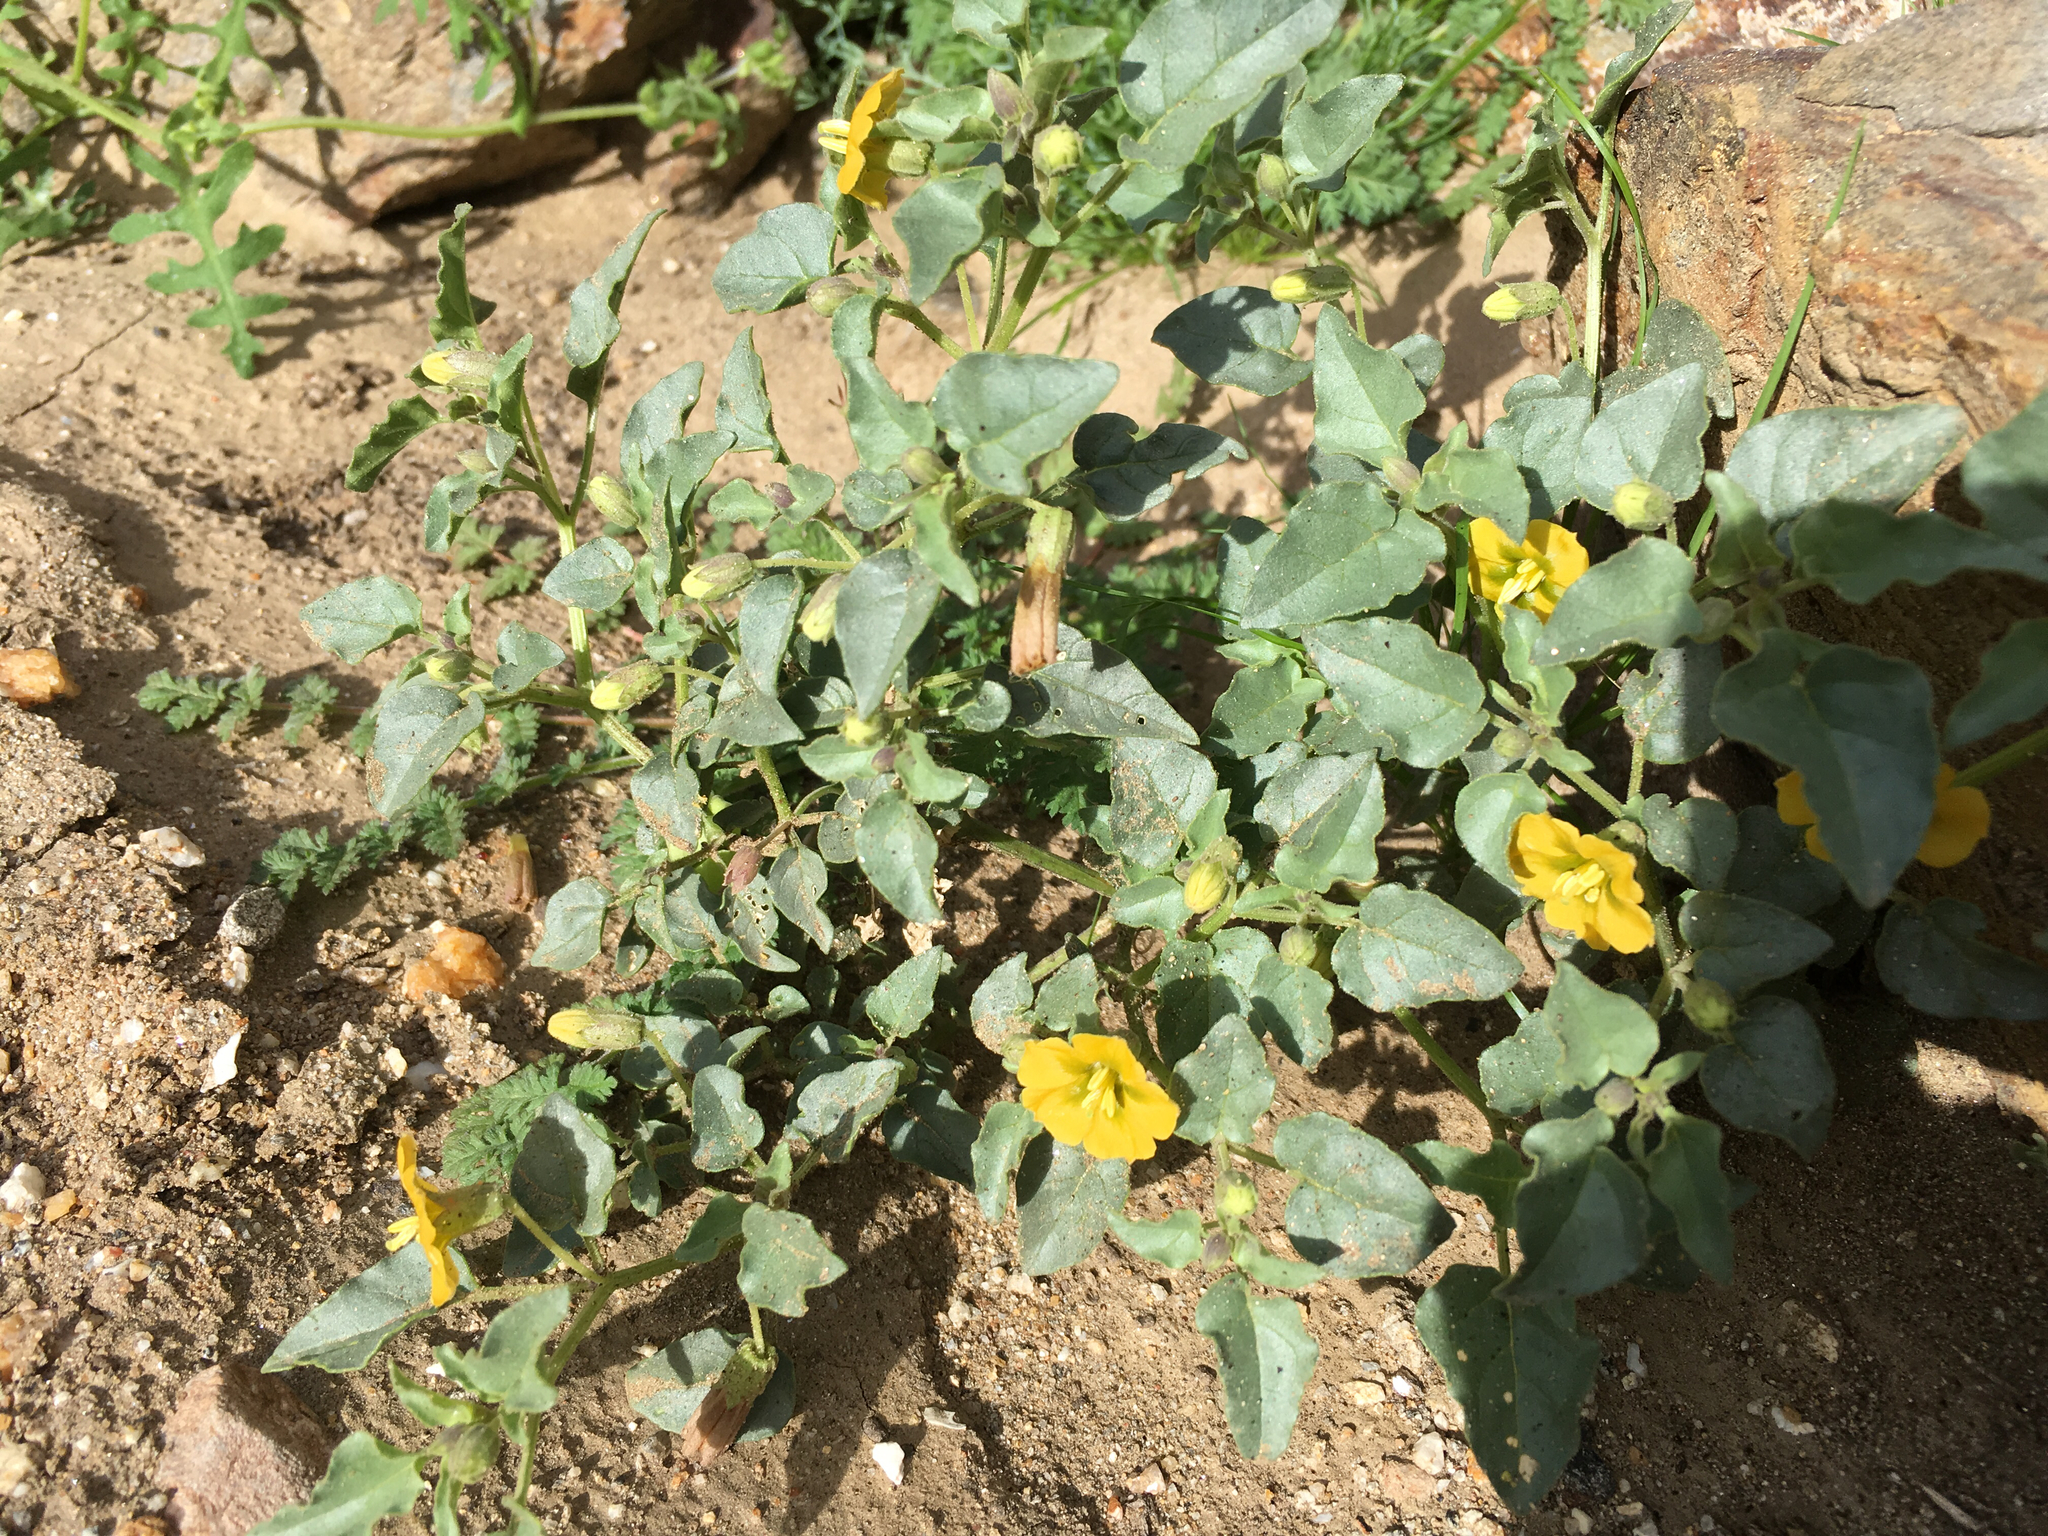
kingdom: Plantae
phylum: Tracheophyta
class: Magnoliopsida
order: Solanales
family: Solanaceae
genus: Physalis
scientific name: Physalis crassifolia
